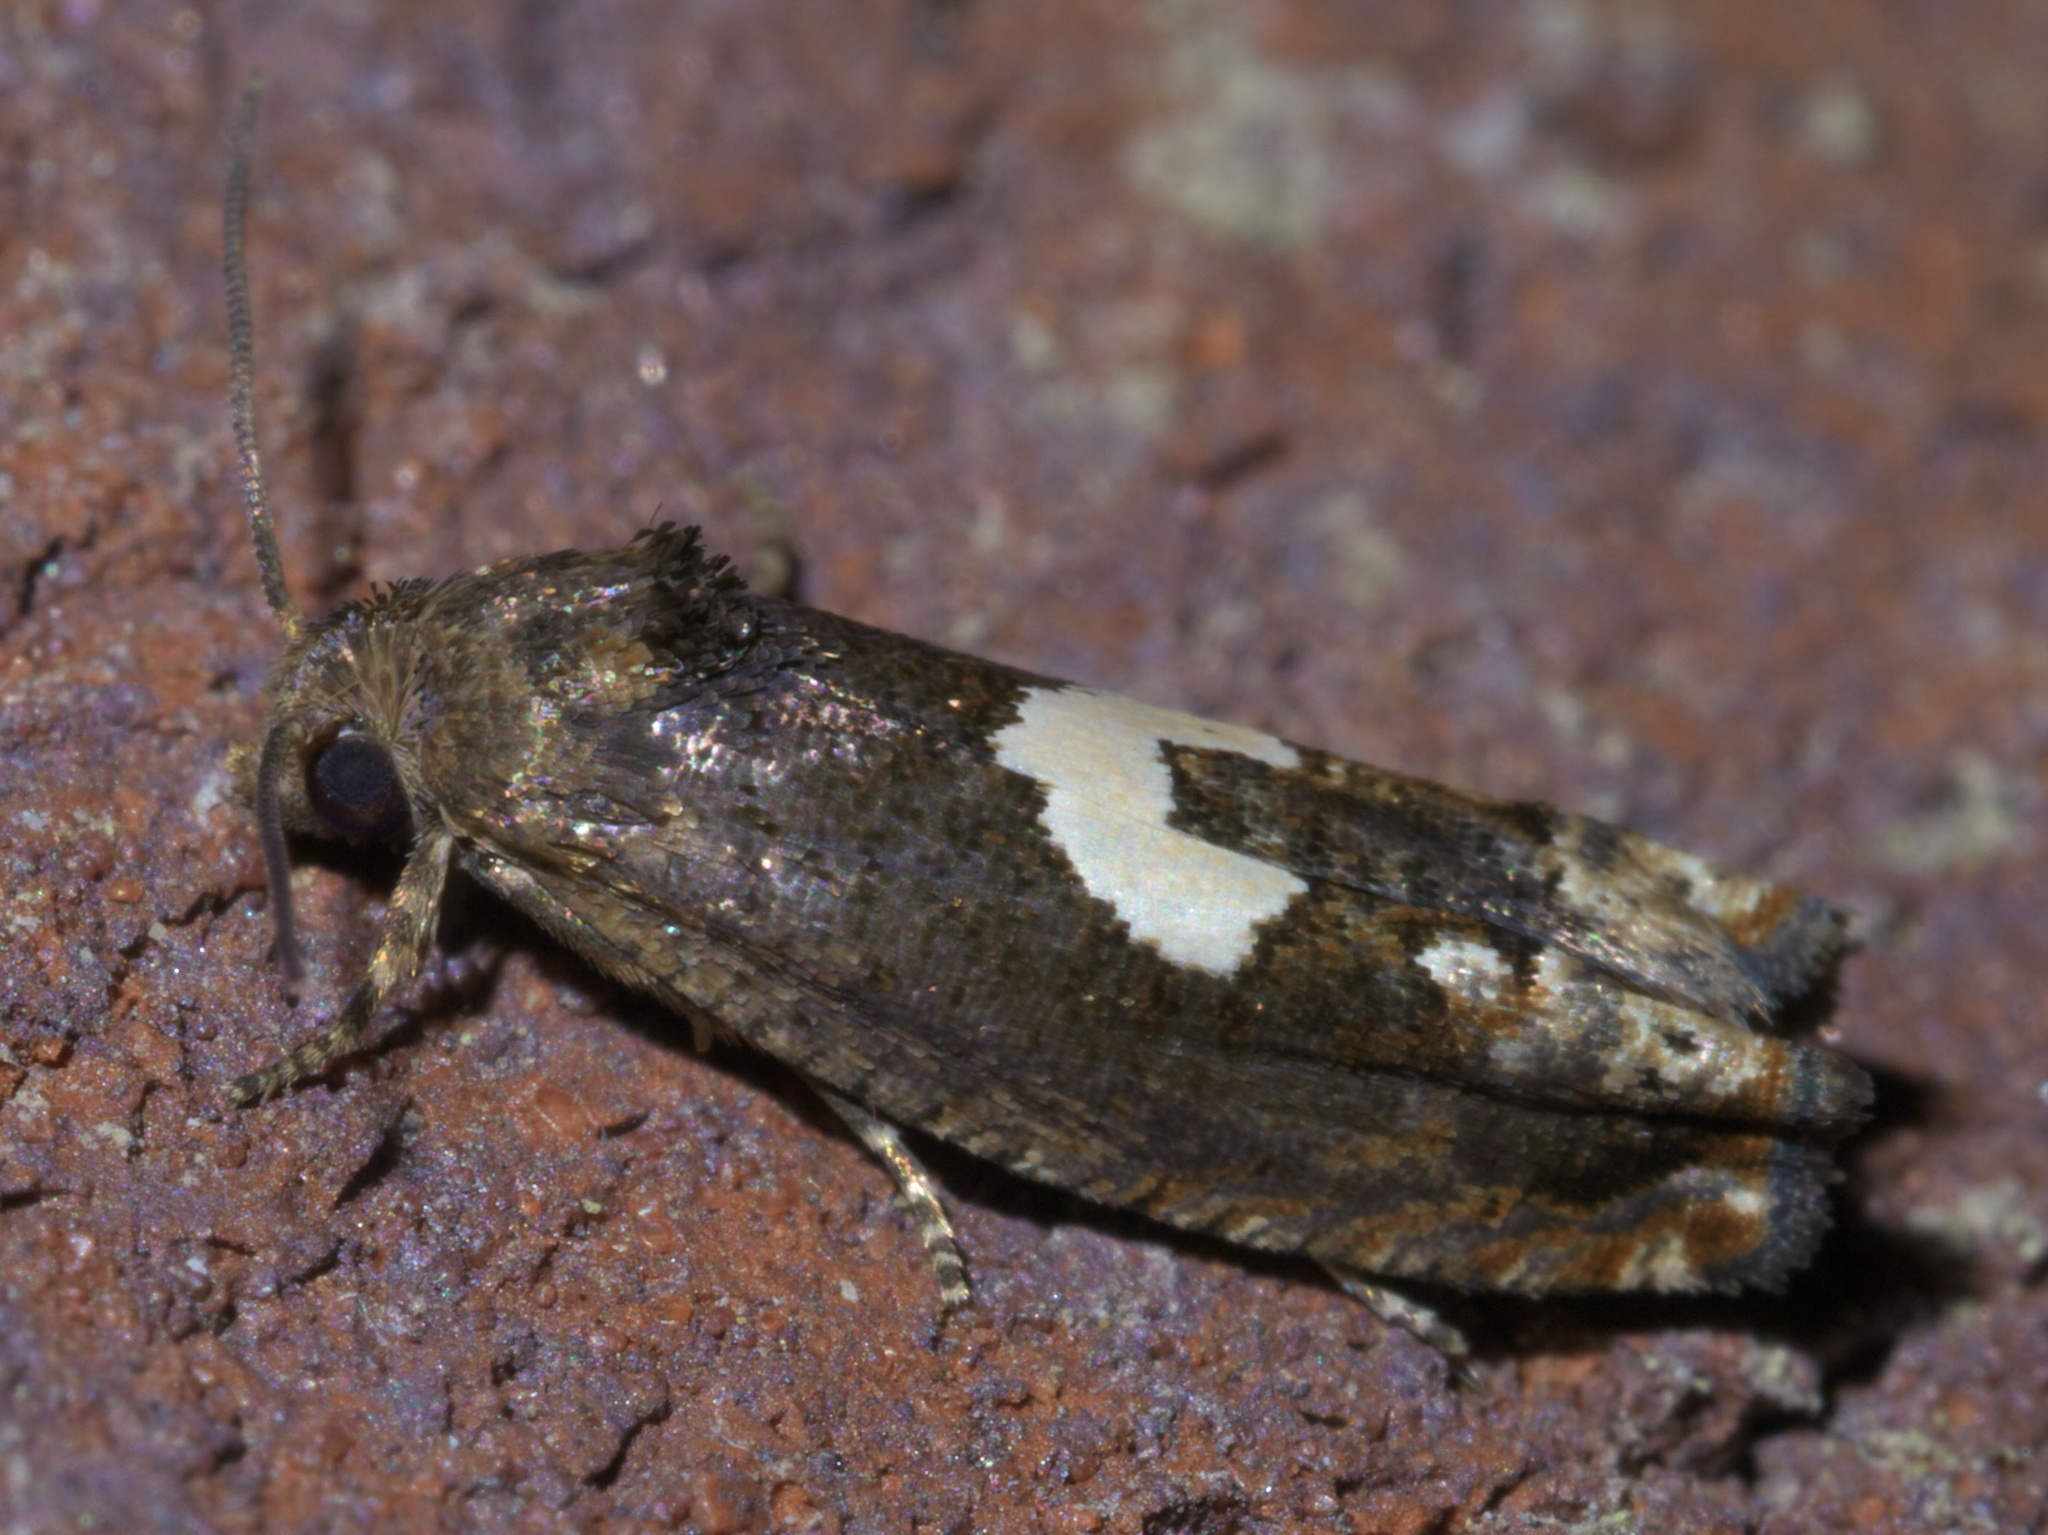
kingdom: Animalia
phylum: Arthropoda
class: Insecta
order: Lepidoptera
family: Tortricidae
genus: Epiblema
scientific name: Epiblema otiosana
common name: Bidens borer moth
